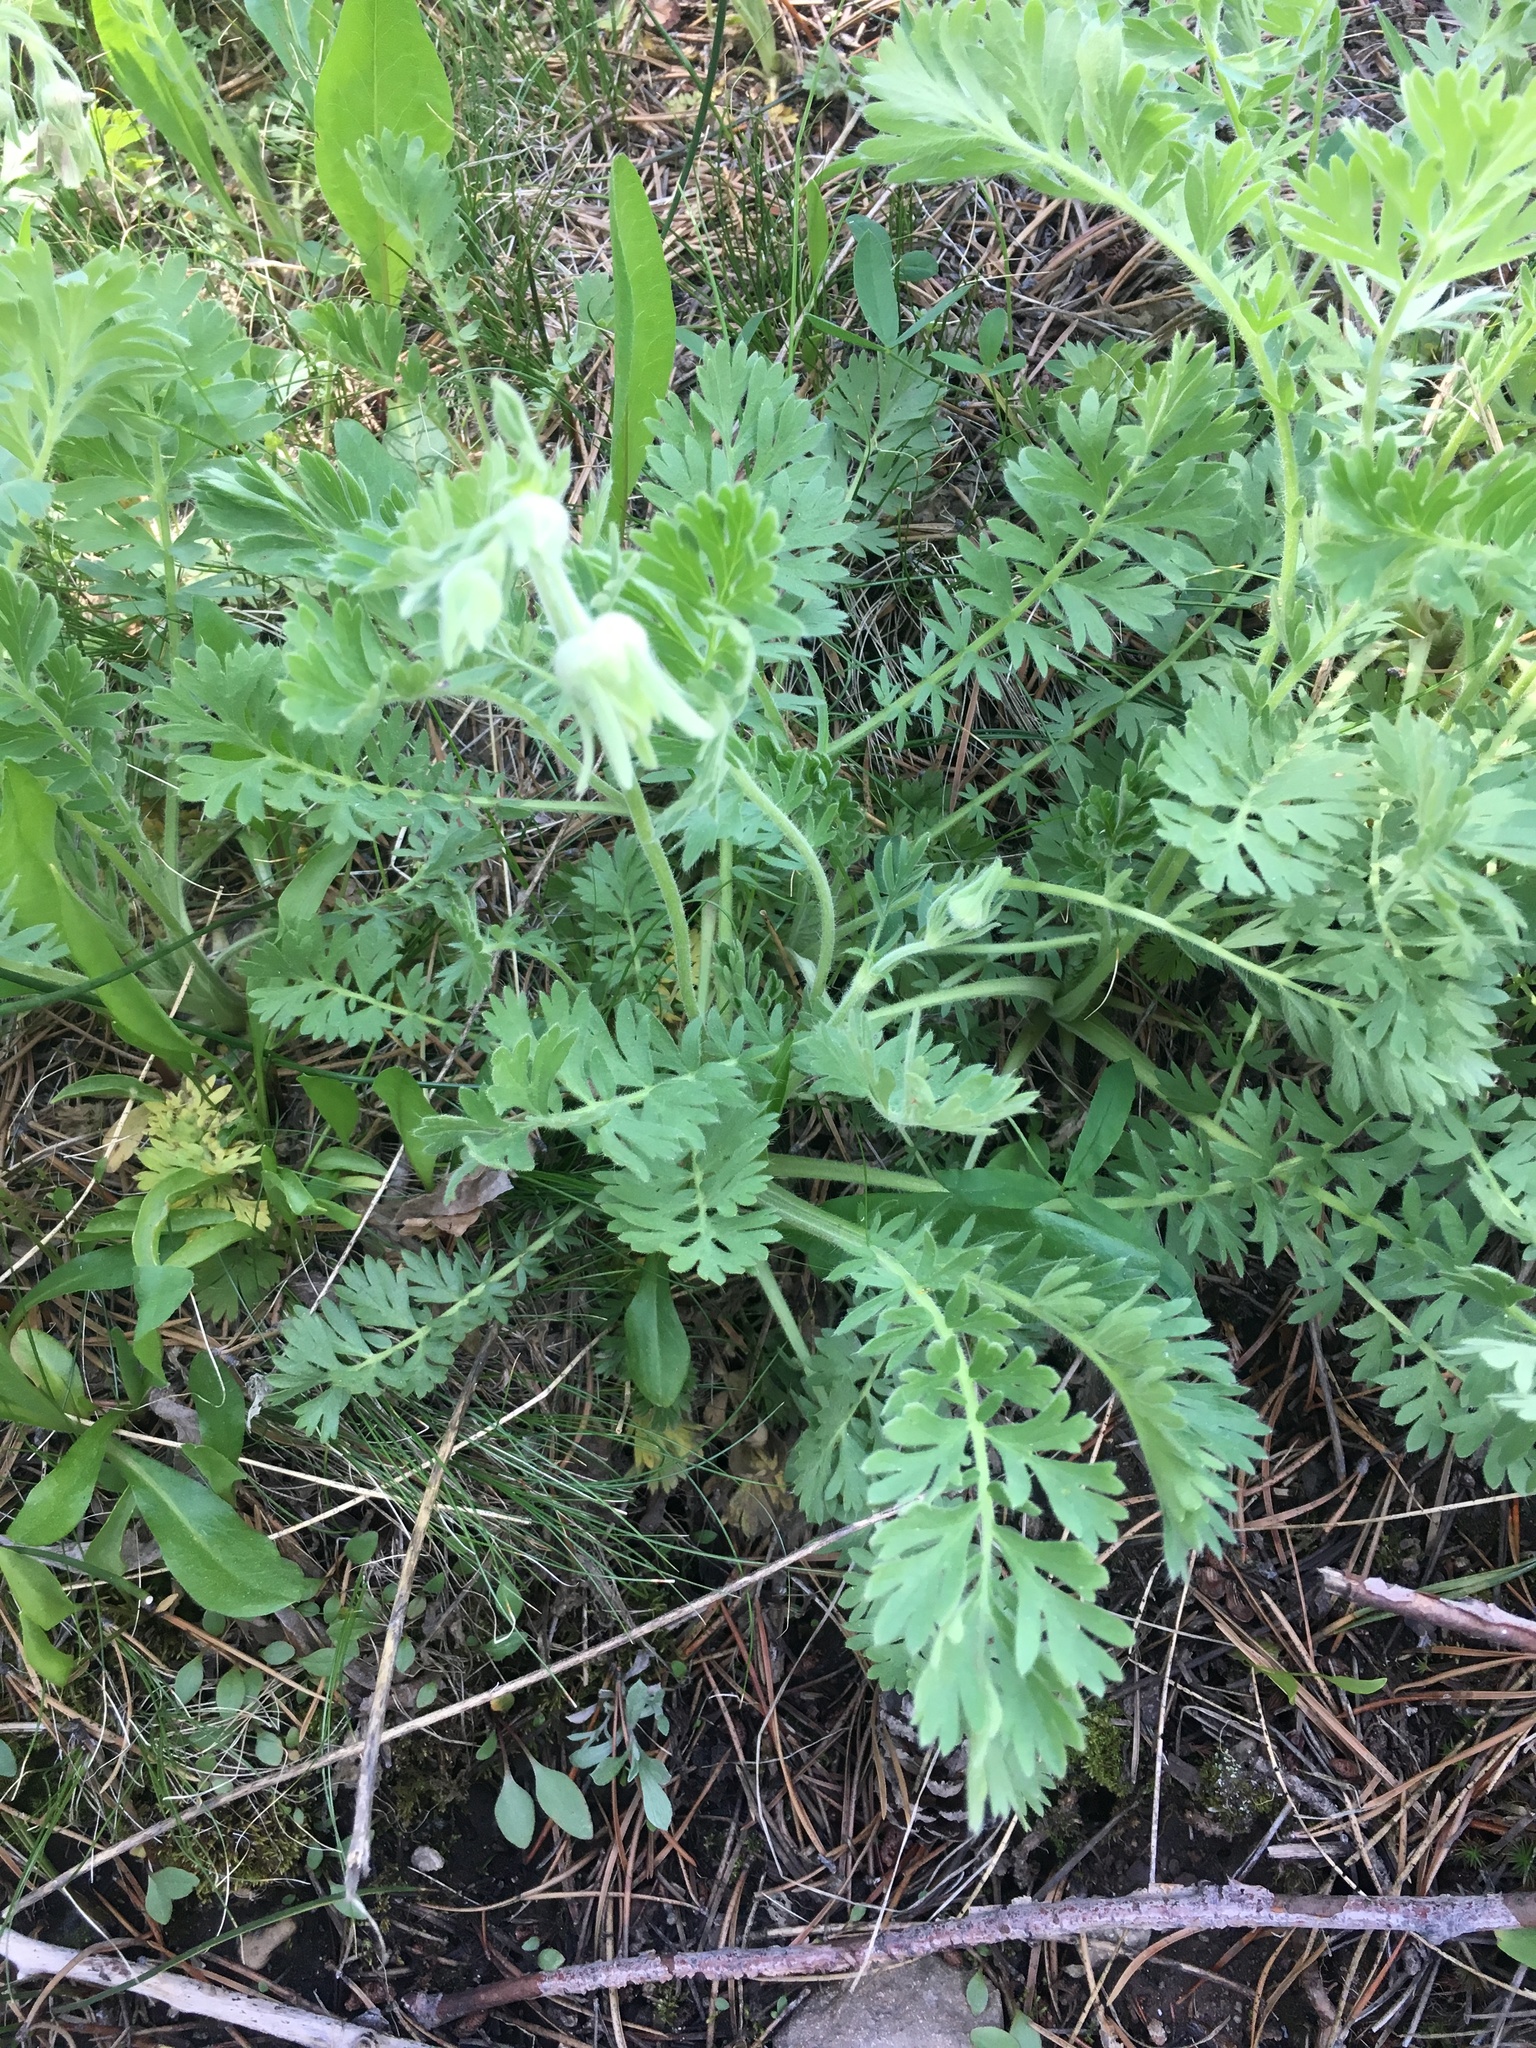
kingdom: Plantae
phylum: Tracheophyta
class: Magnoliopsida
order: Rosales
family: Rosaceae
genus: Geum
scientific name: Geum triflorum
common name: Old man's whiskers
